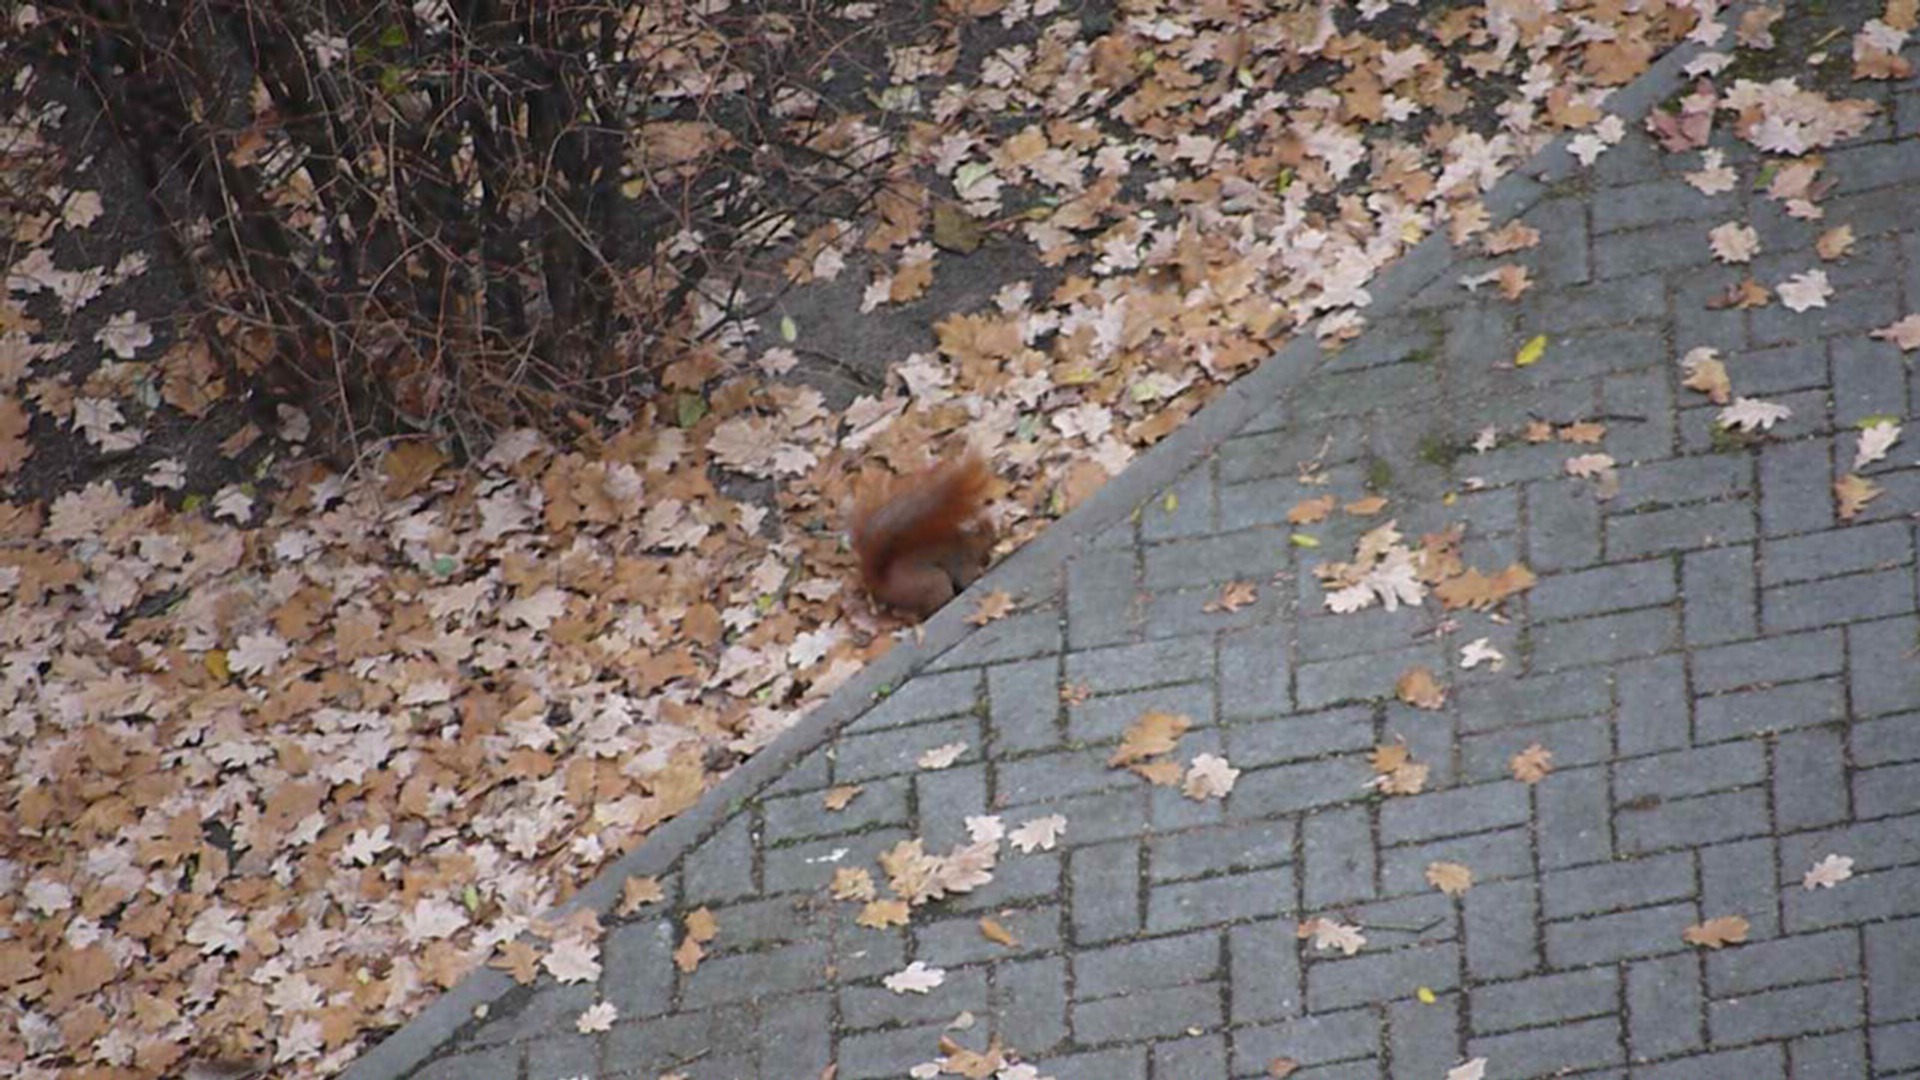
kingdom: Animalia
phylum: Chordata
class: Mammalia
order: Rodentia
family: Sciuridae
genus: Sciurus
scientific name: Sciurus vulgaris
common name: Eurasian red squirrel
